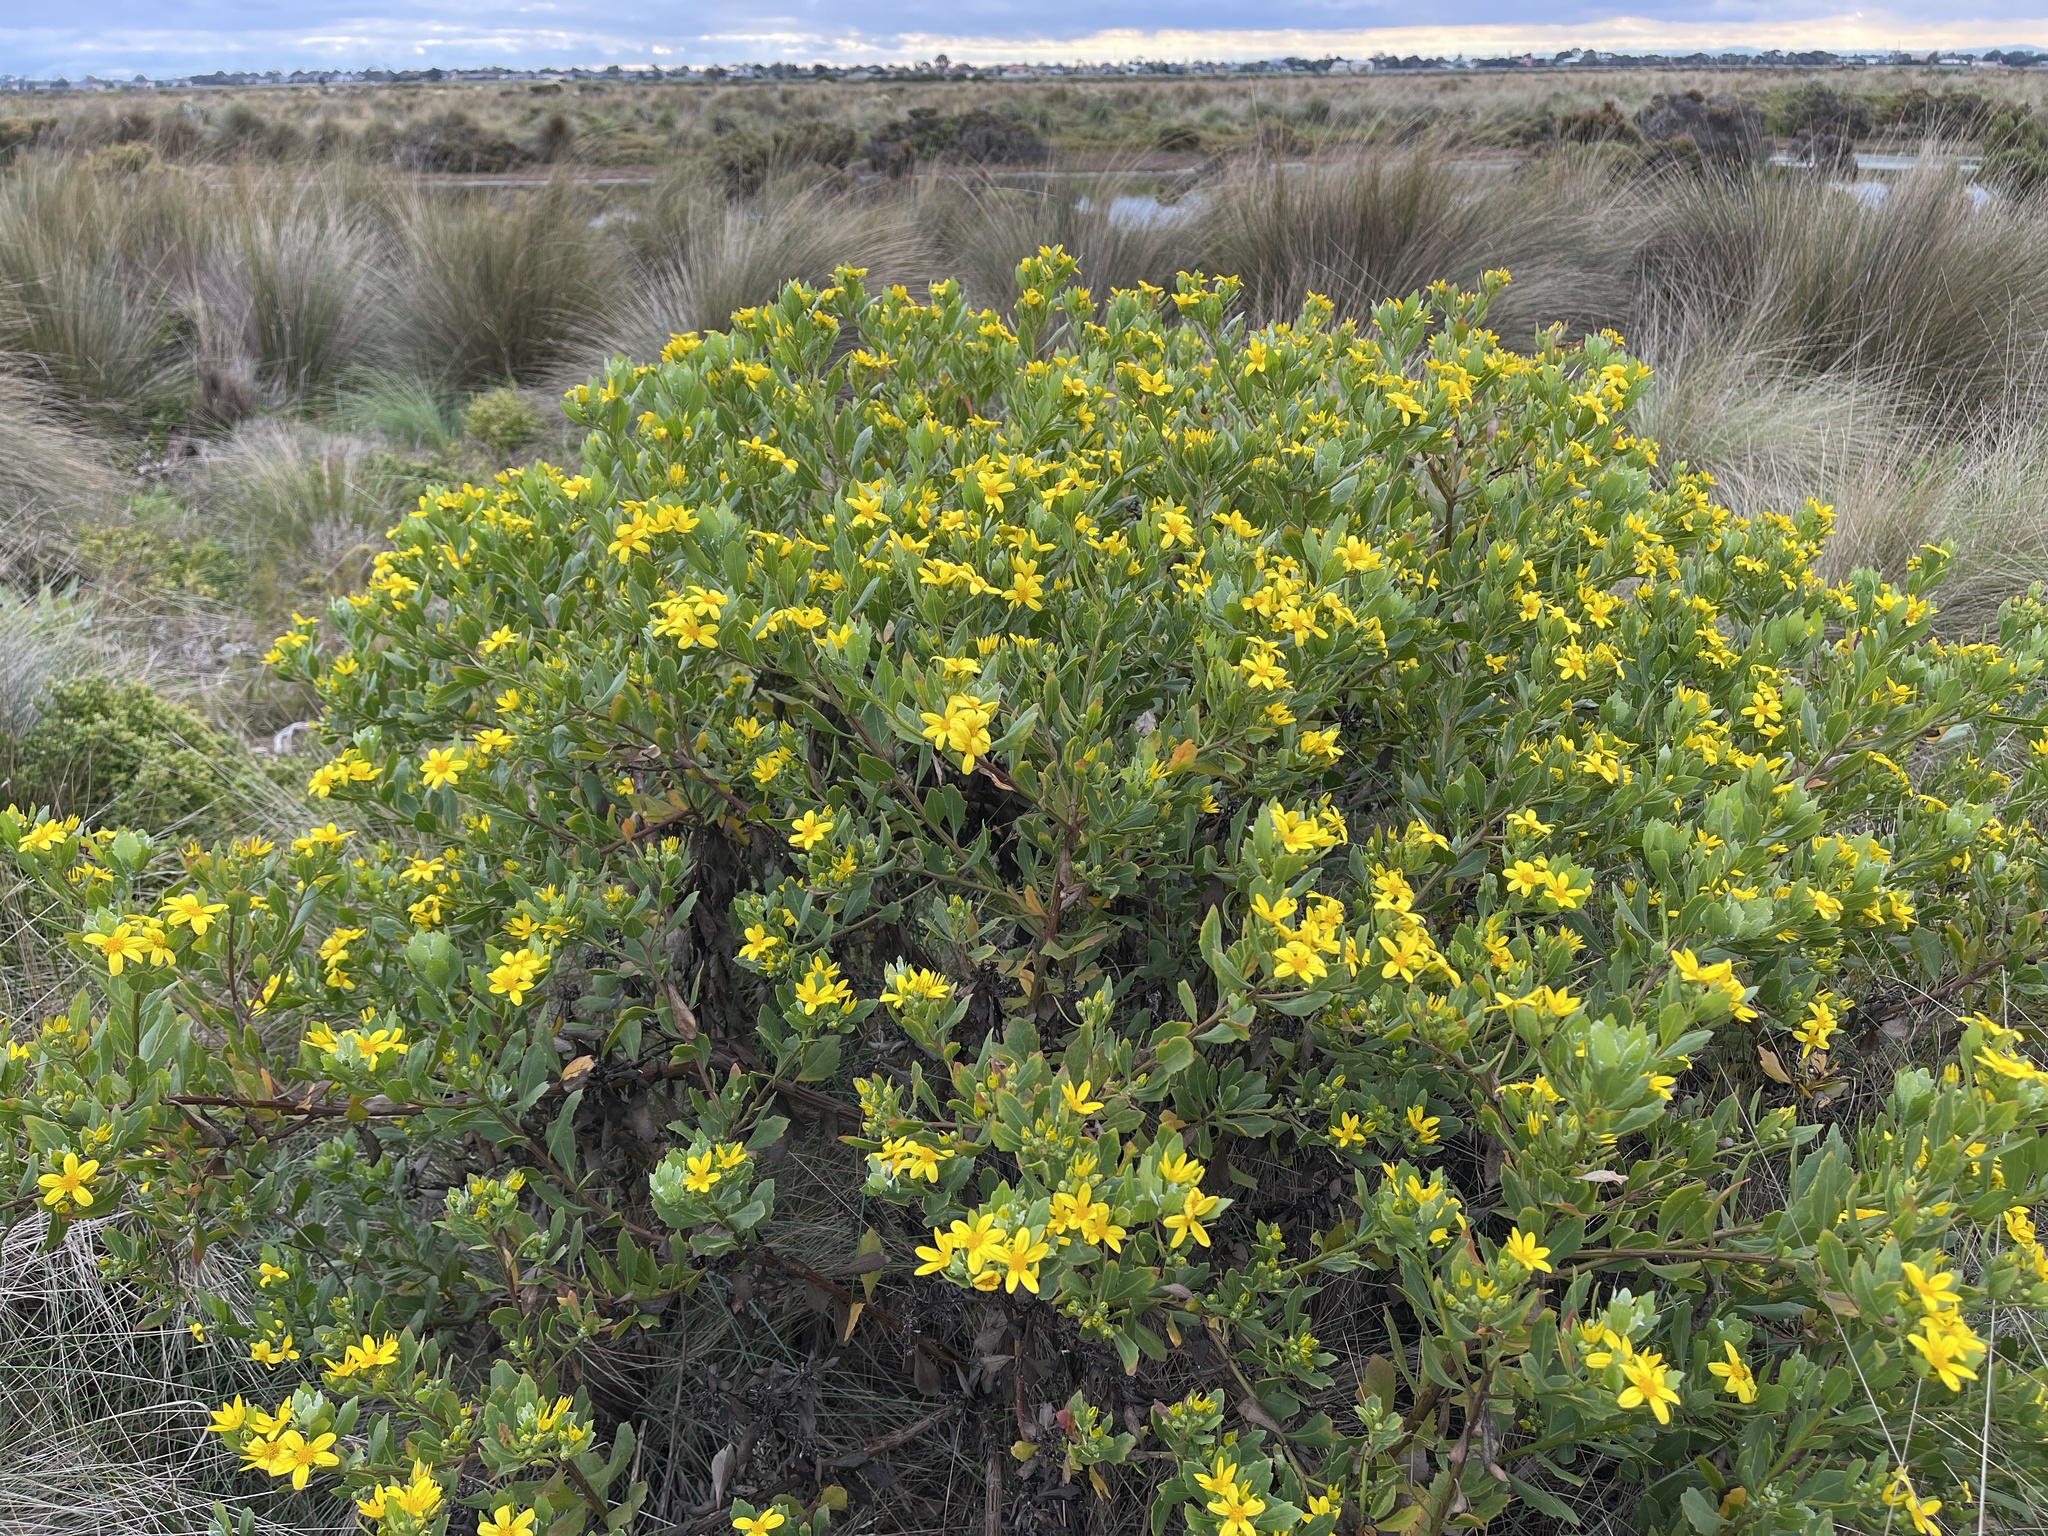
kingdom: Plantae
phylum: Tracheophyta
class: Magnoliopsida
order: Asterales
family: Asteraceae
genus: Osteospermum
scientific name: Osteospermum moniliferum
